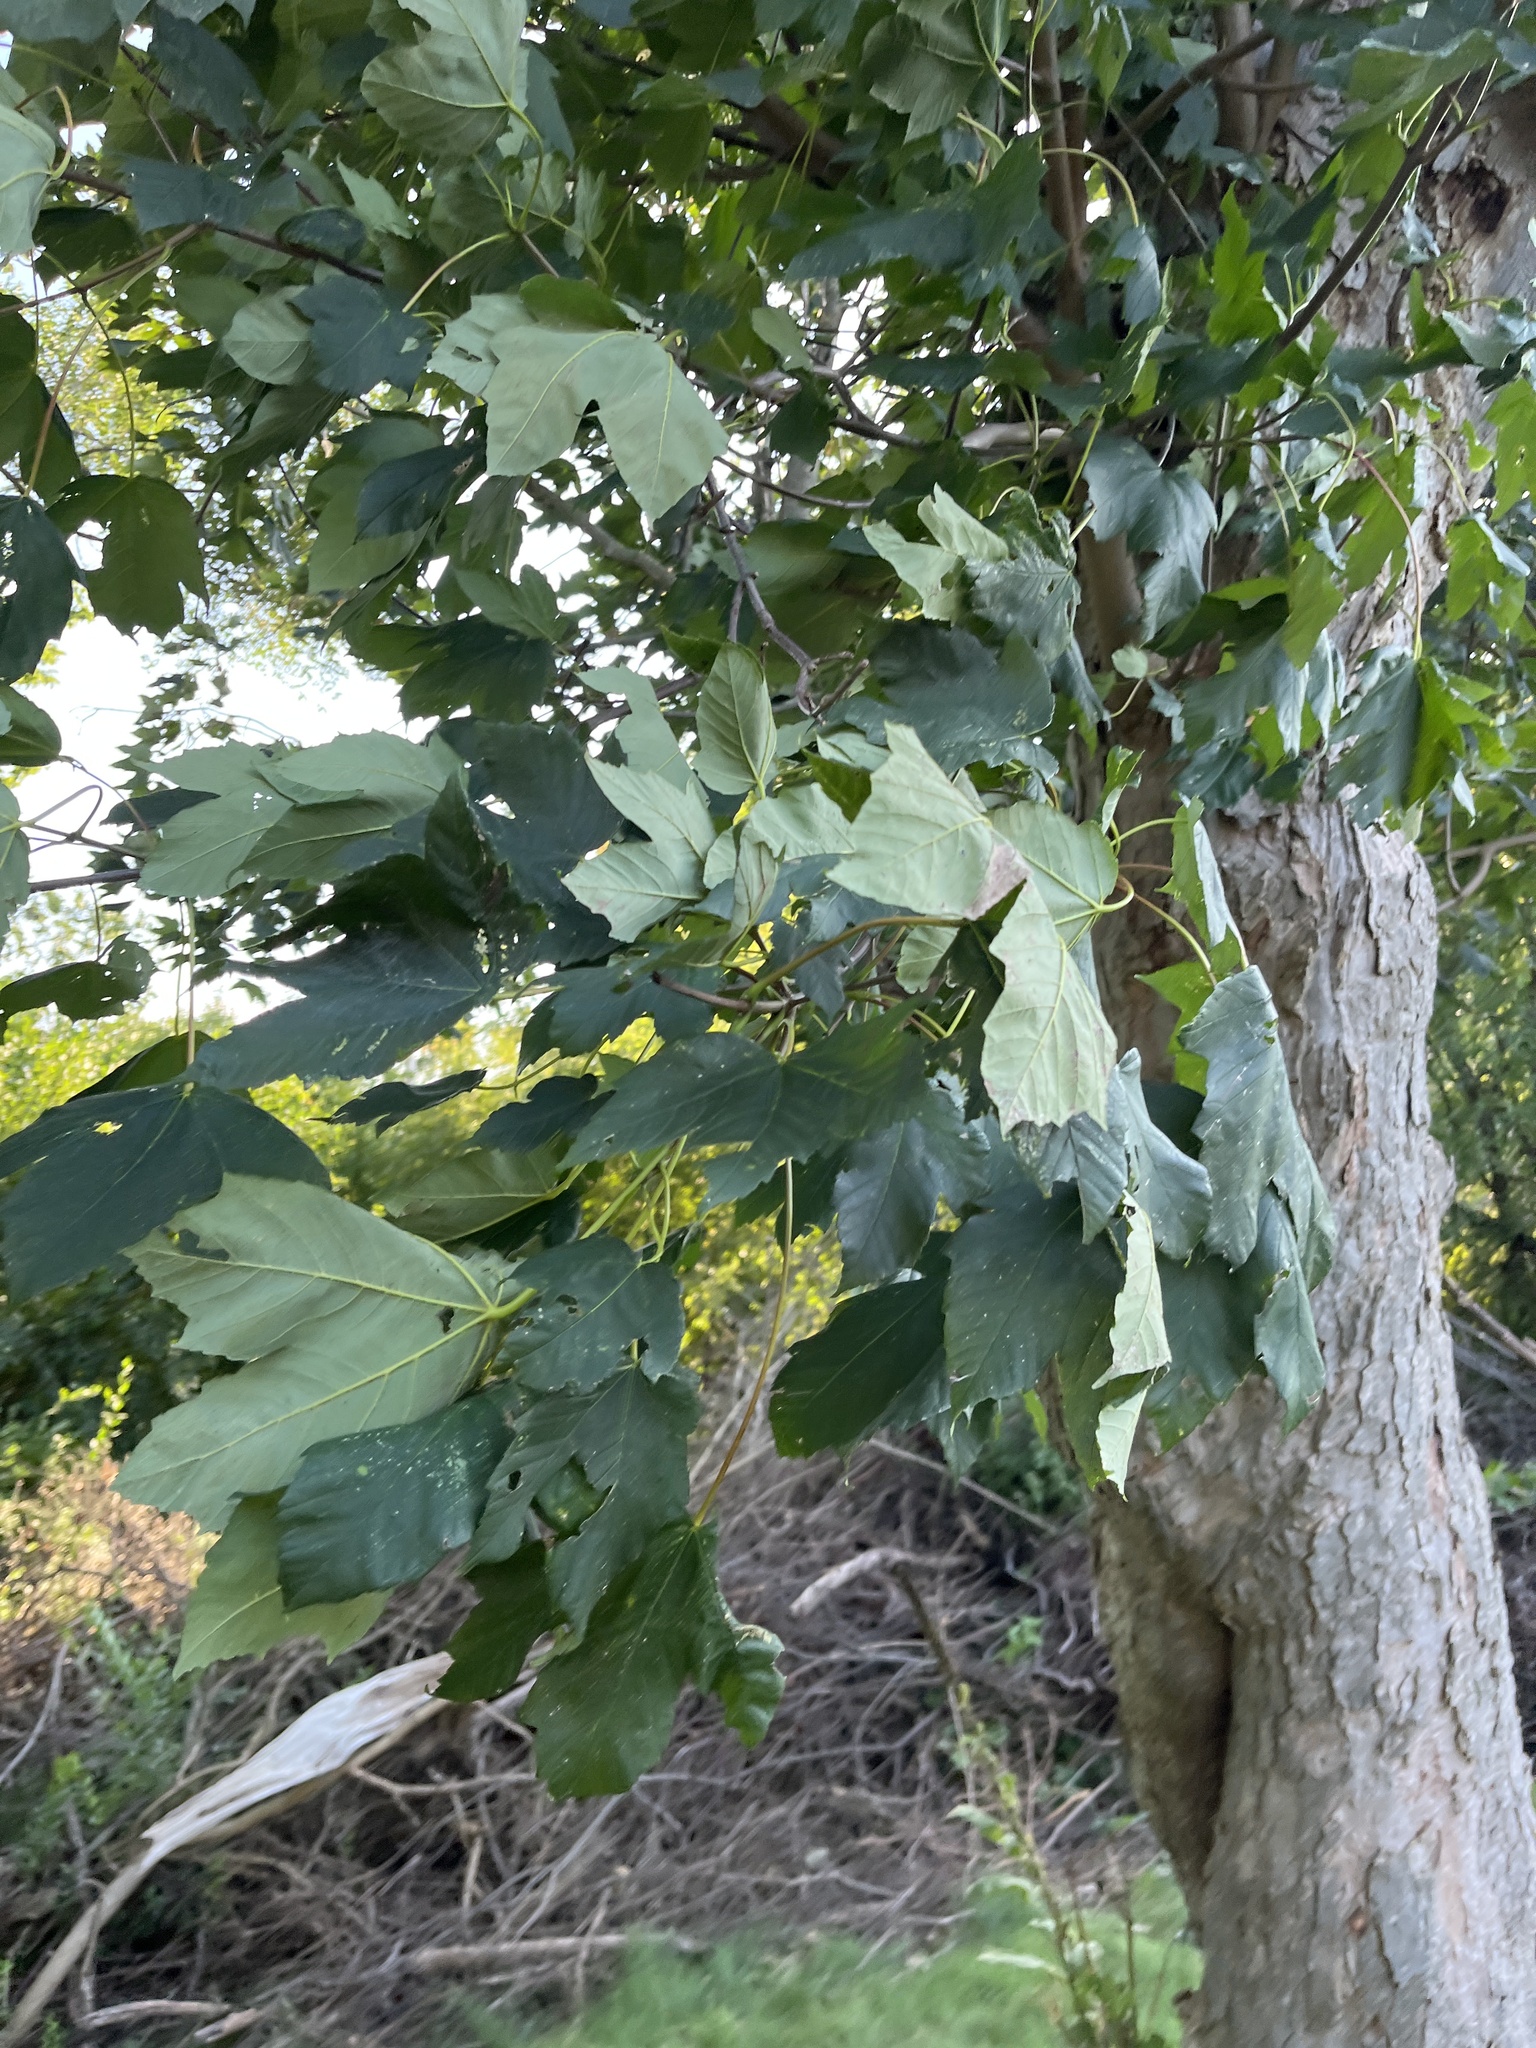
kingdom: Plantae
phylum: Tracheophyta
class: Magnoliopsida
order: Sapindales
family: Sapindaceae
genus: Acer
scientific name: Acer pseudoplatanus
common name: Sycamore
